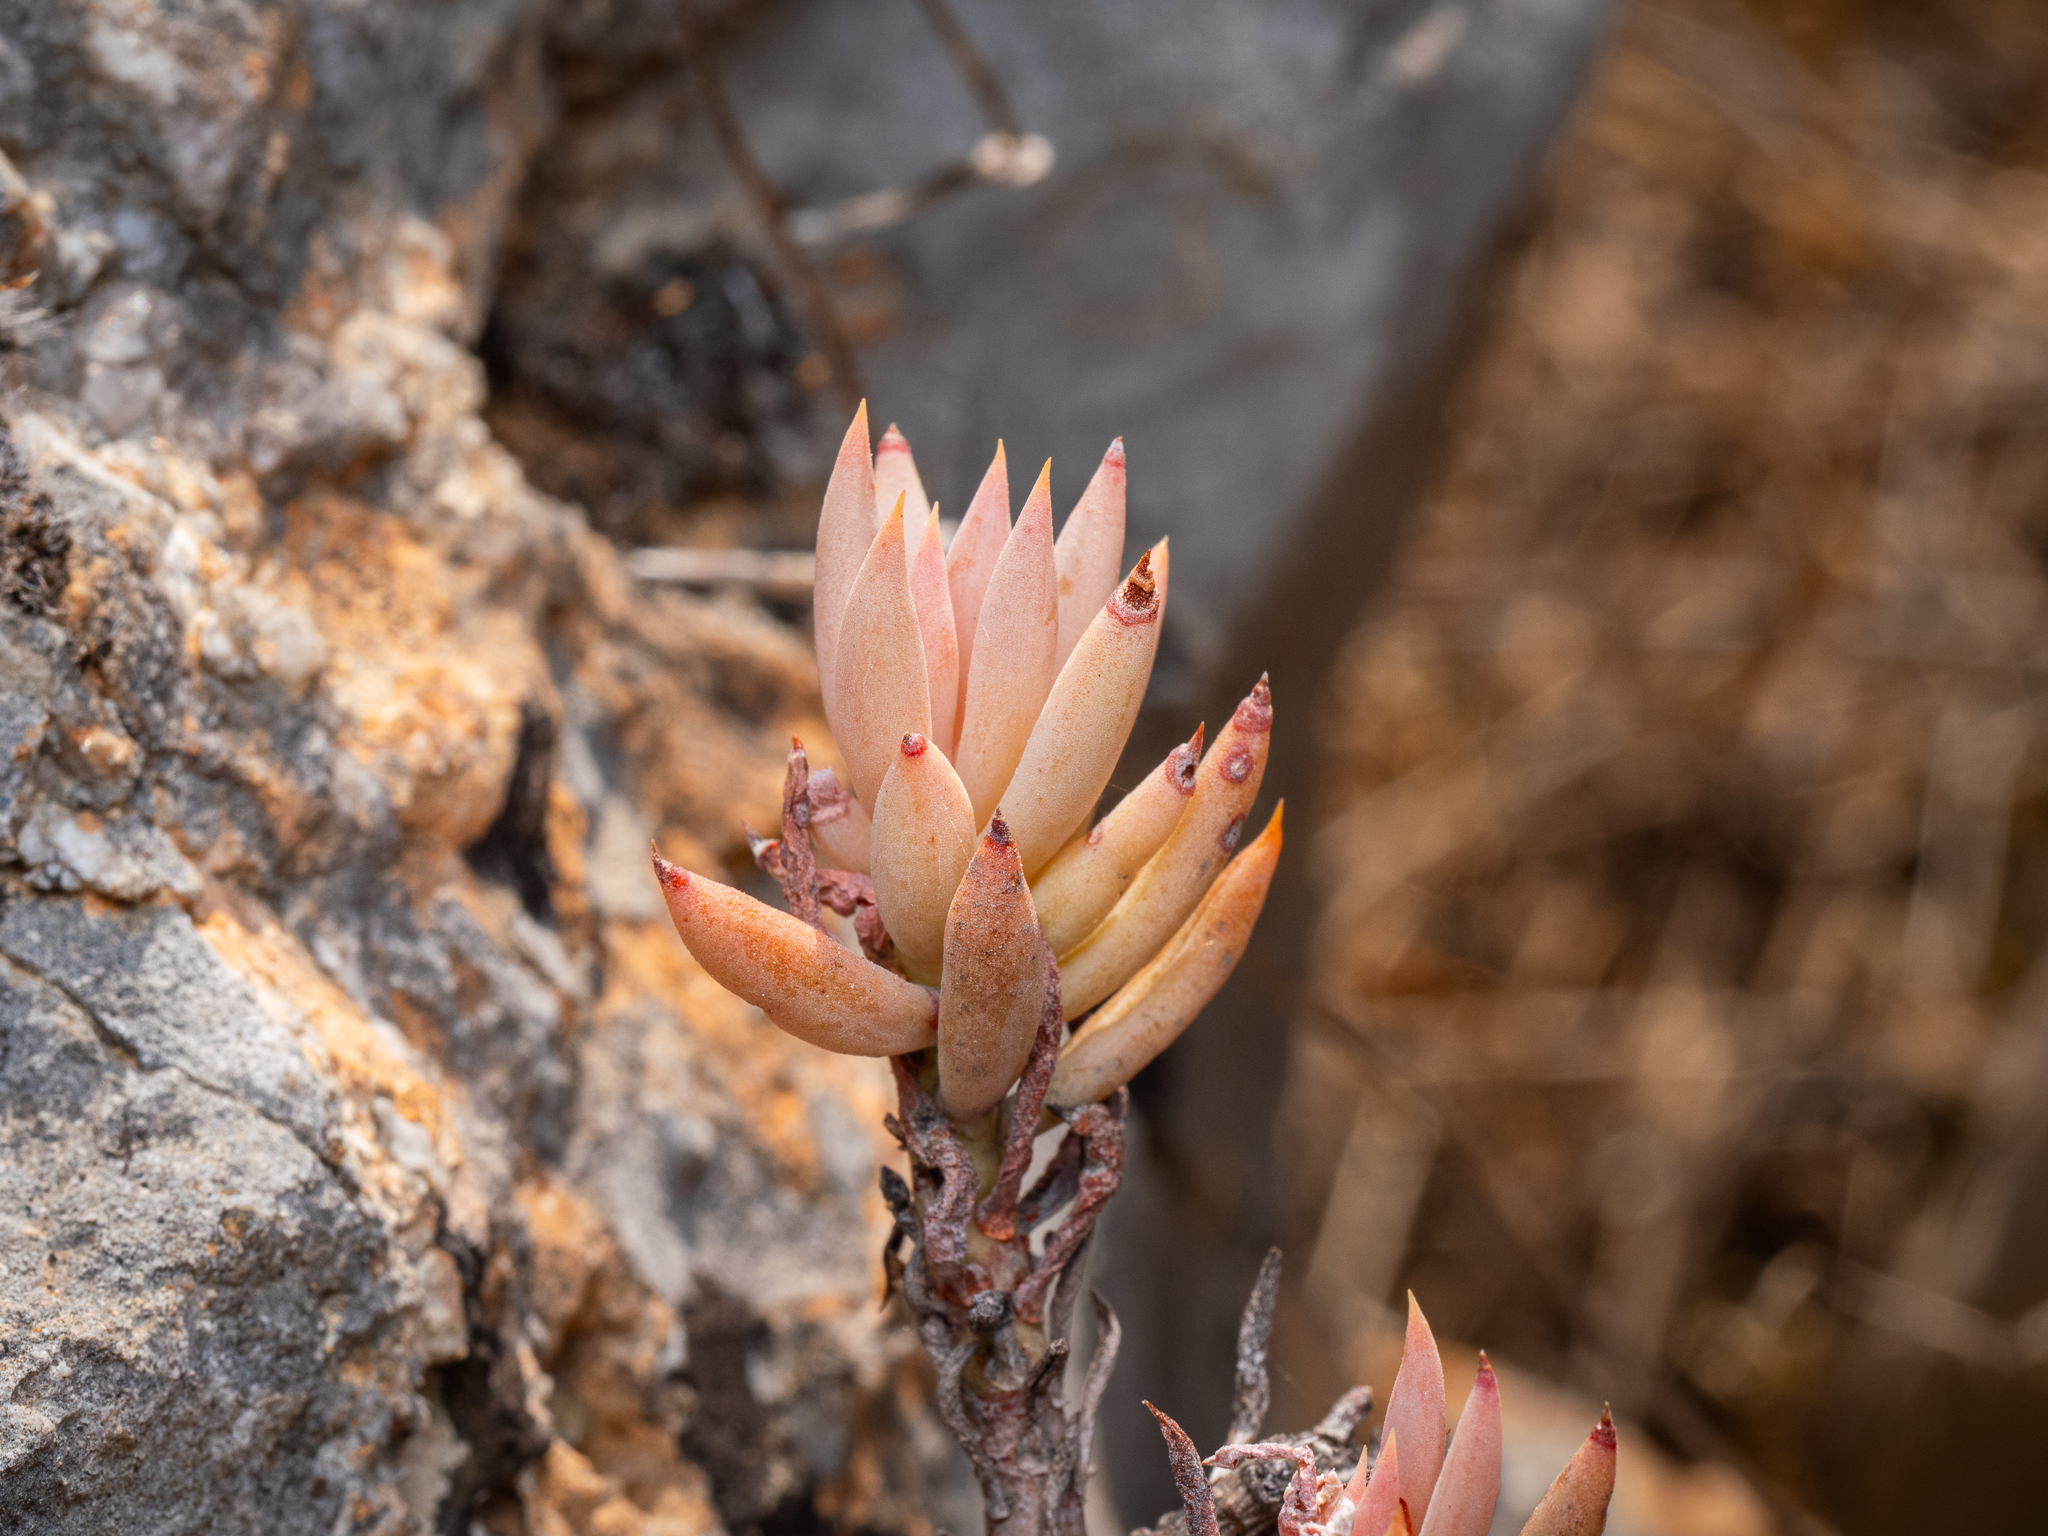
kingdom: Plantae
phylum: Tracheophyta
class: Magnoliopsida
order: Saxifragales
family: Crassulaceae
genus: Petrosedum
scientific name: Petrosedum sediforme
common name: Pale stonecrop
